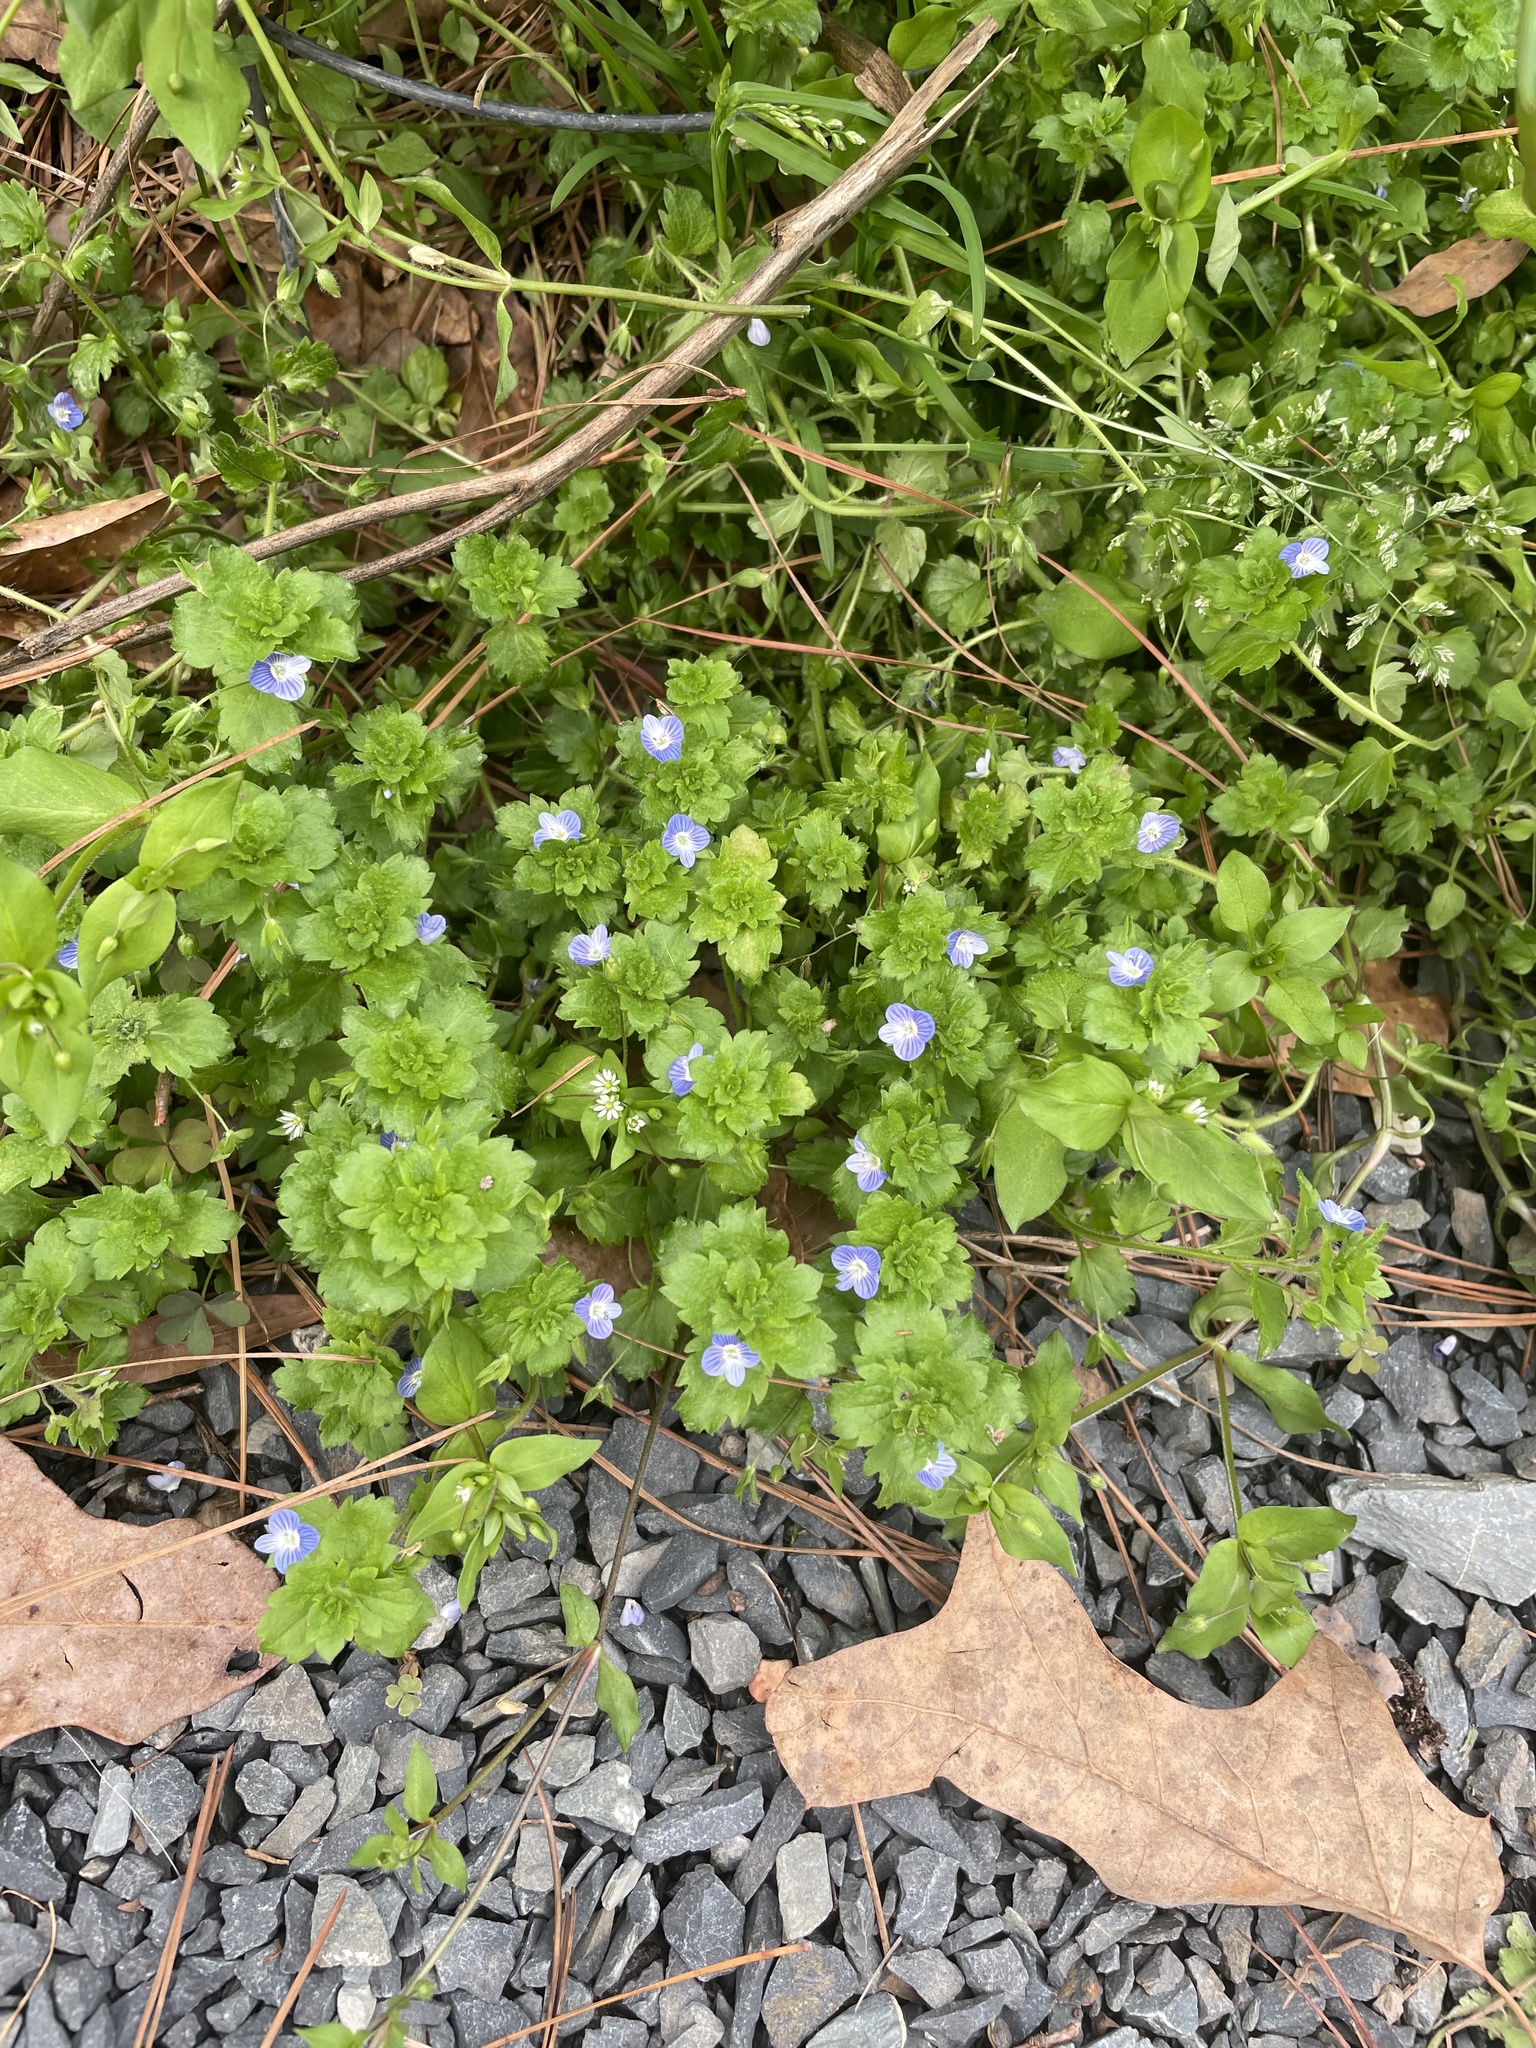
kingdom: Plantae
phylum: Tracheophyta
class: Magnoliopsida
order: Lamiales
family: Plantaginaceae
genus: Veronica
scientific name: Veronica persica
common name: Common field-speedwell
